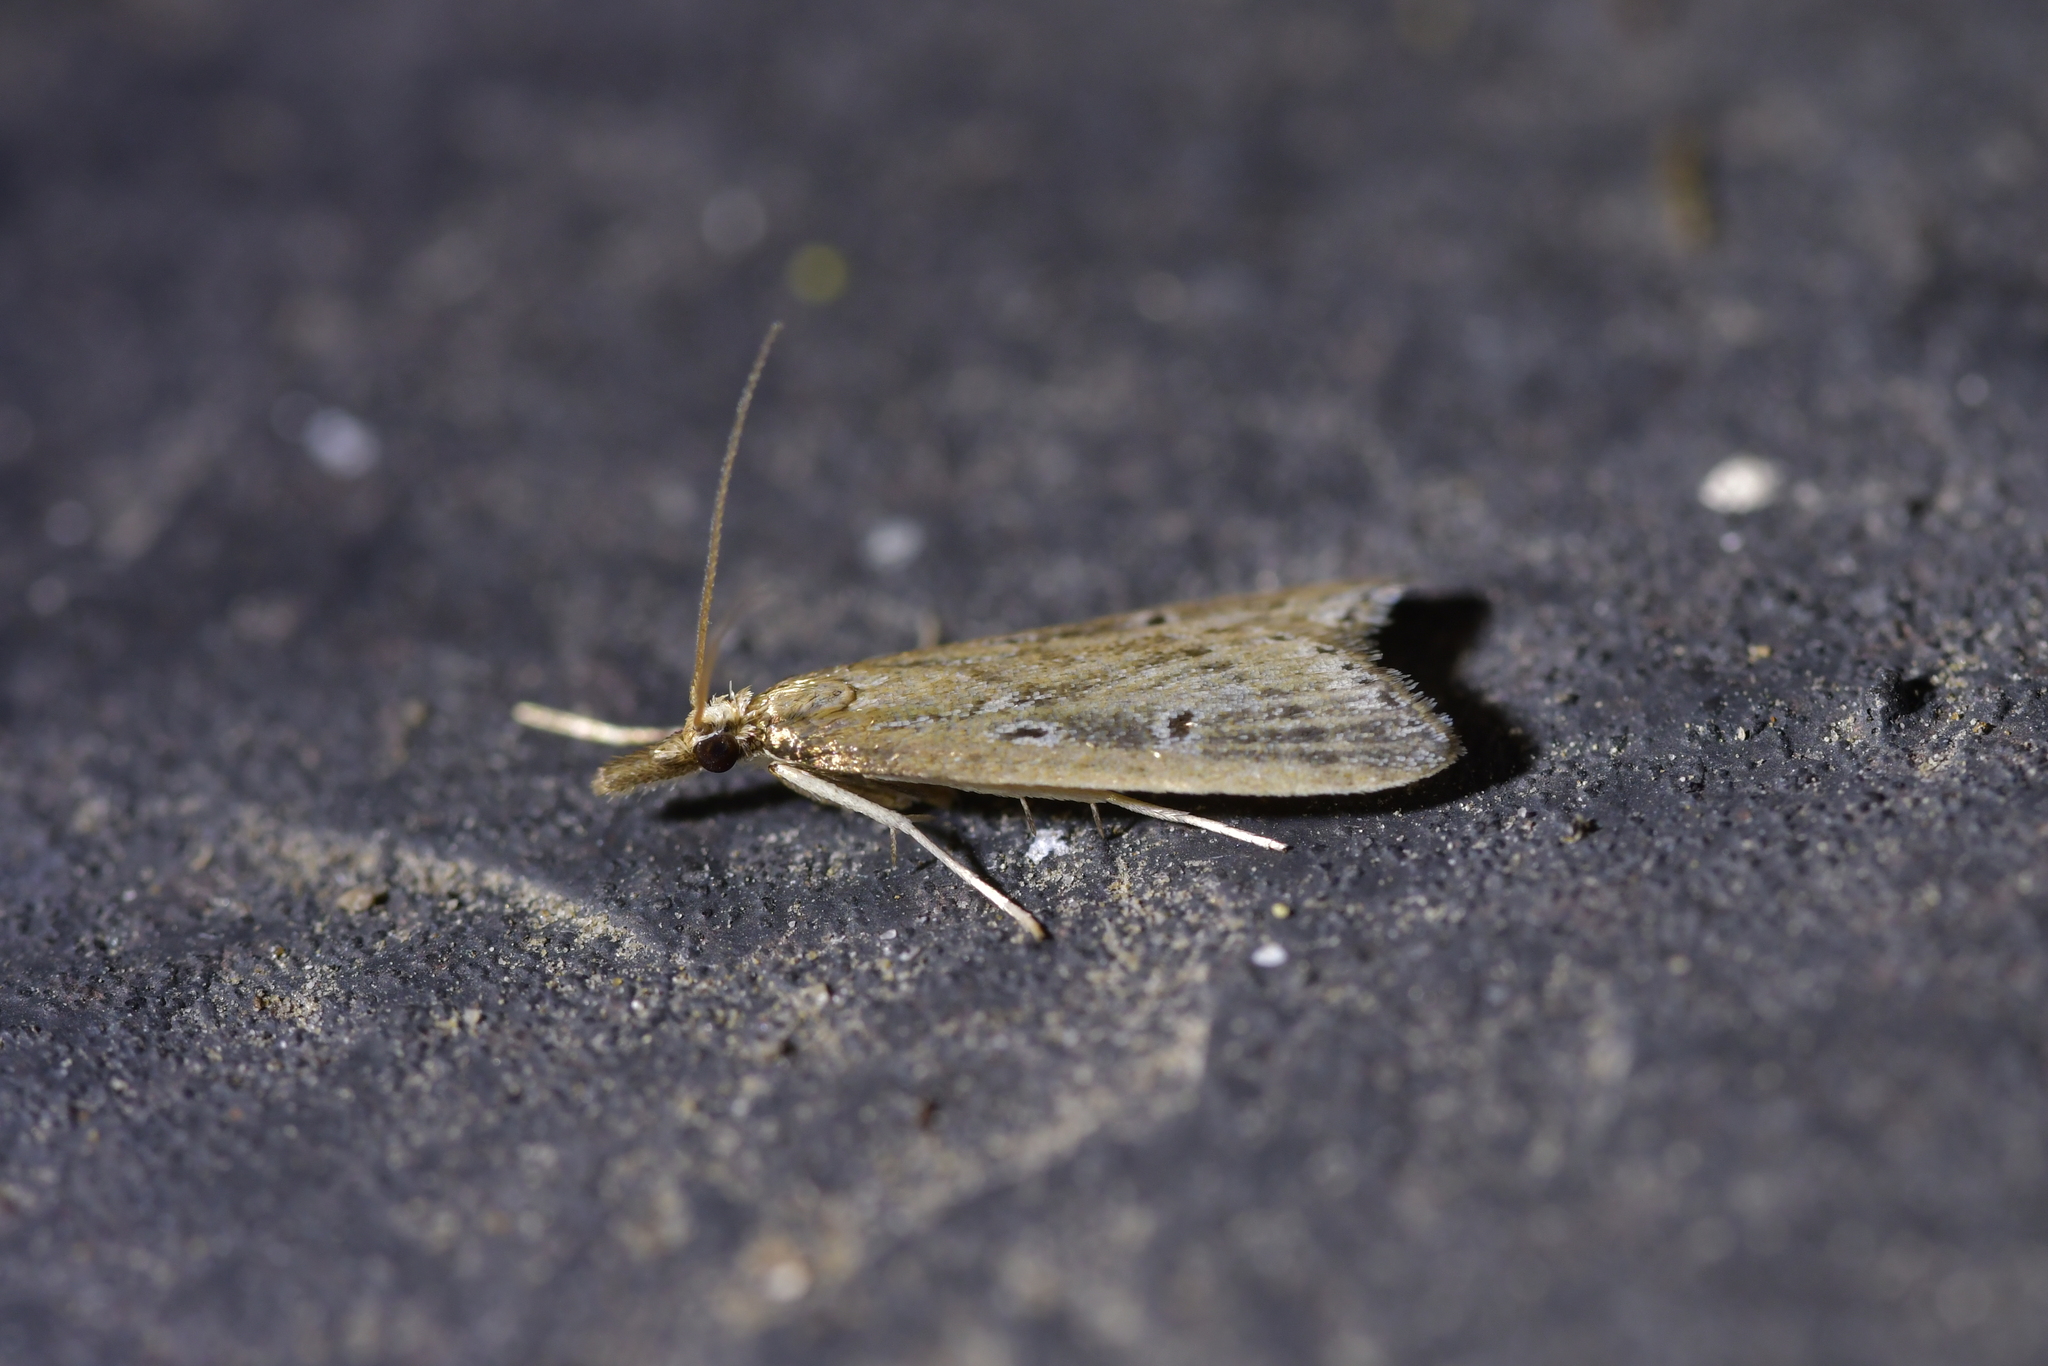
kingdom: Animalia
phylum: Arthropoda
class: Insecta
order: Lepidoptera
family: Crambidae
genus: Antiscopa
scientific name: Antiscopa elaphra
